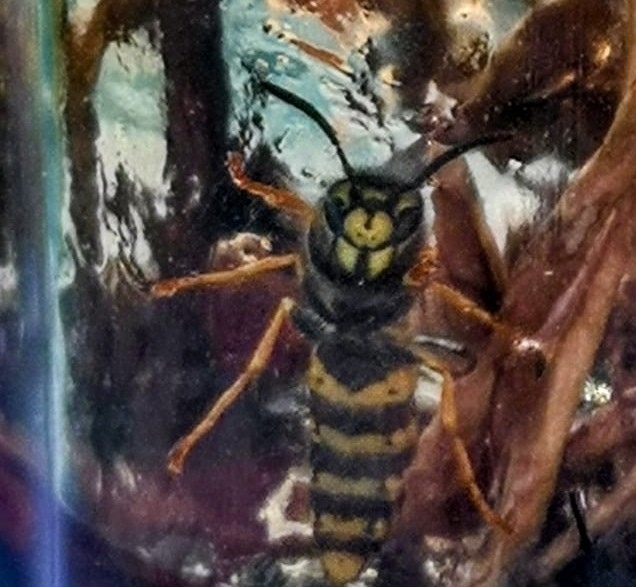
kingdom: Animalia
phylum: Arthropoda
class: Insecta
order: Hymenoptera
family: Vespidae
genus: Vespula
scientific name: Vespula germanica
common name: German wasp
